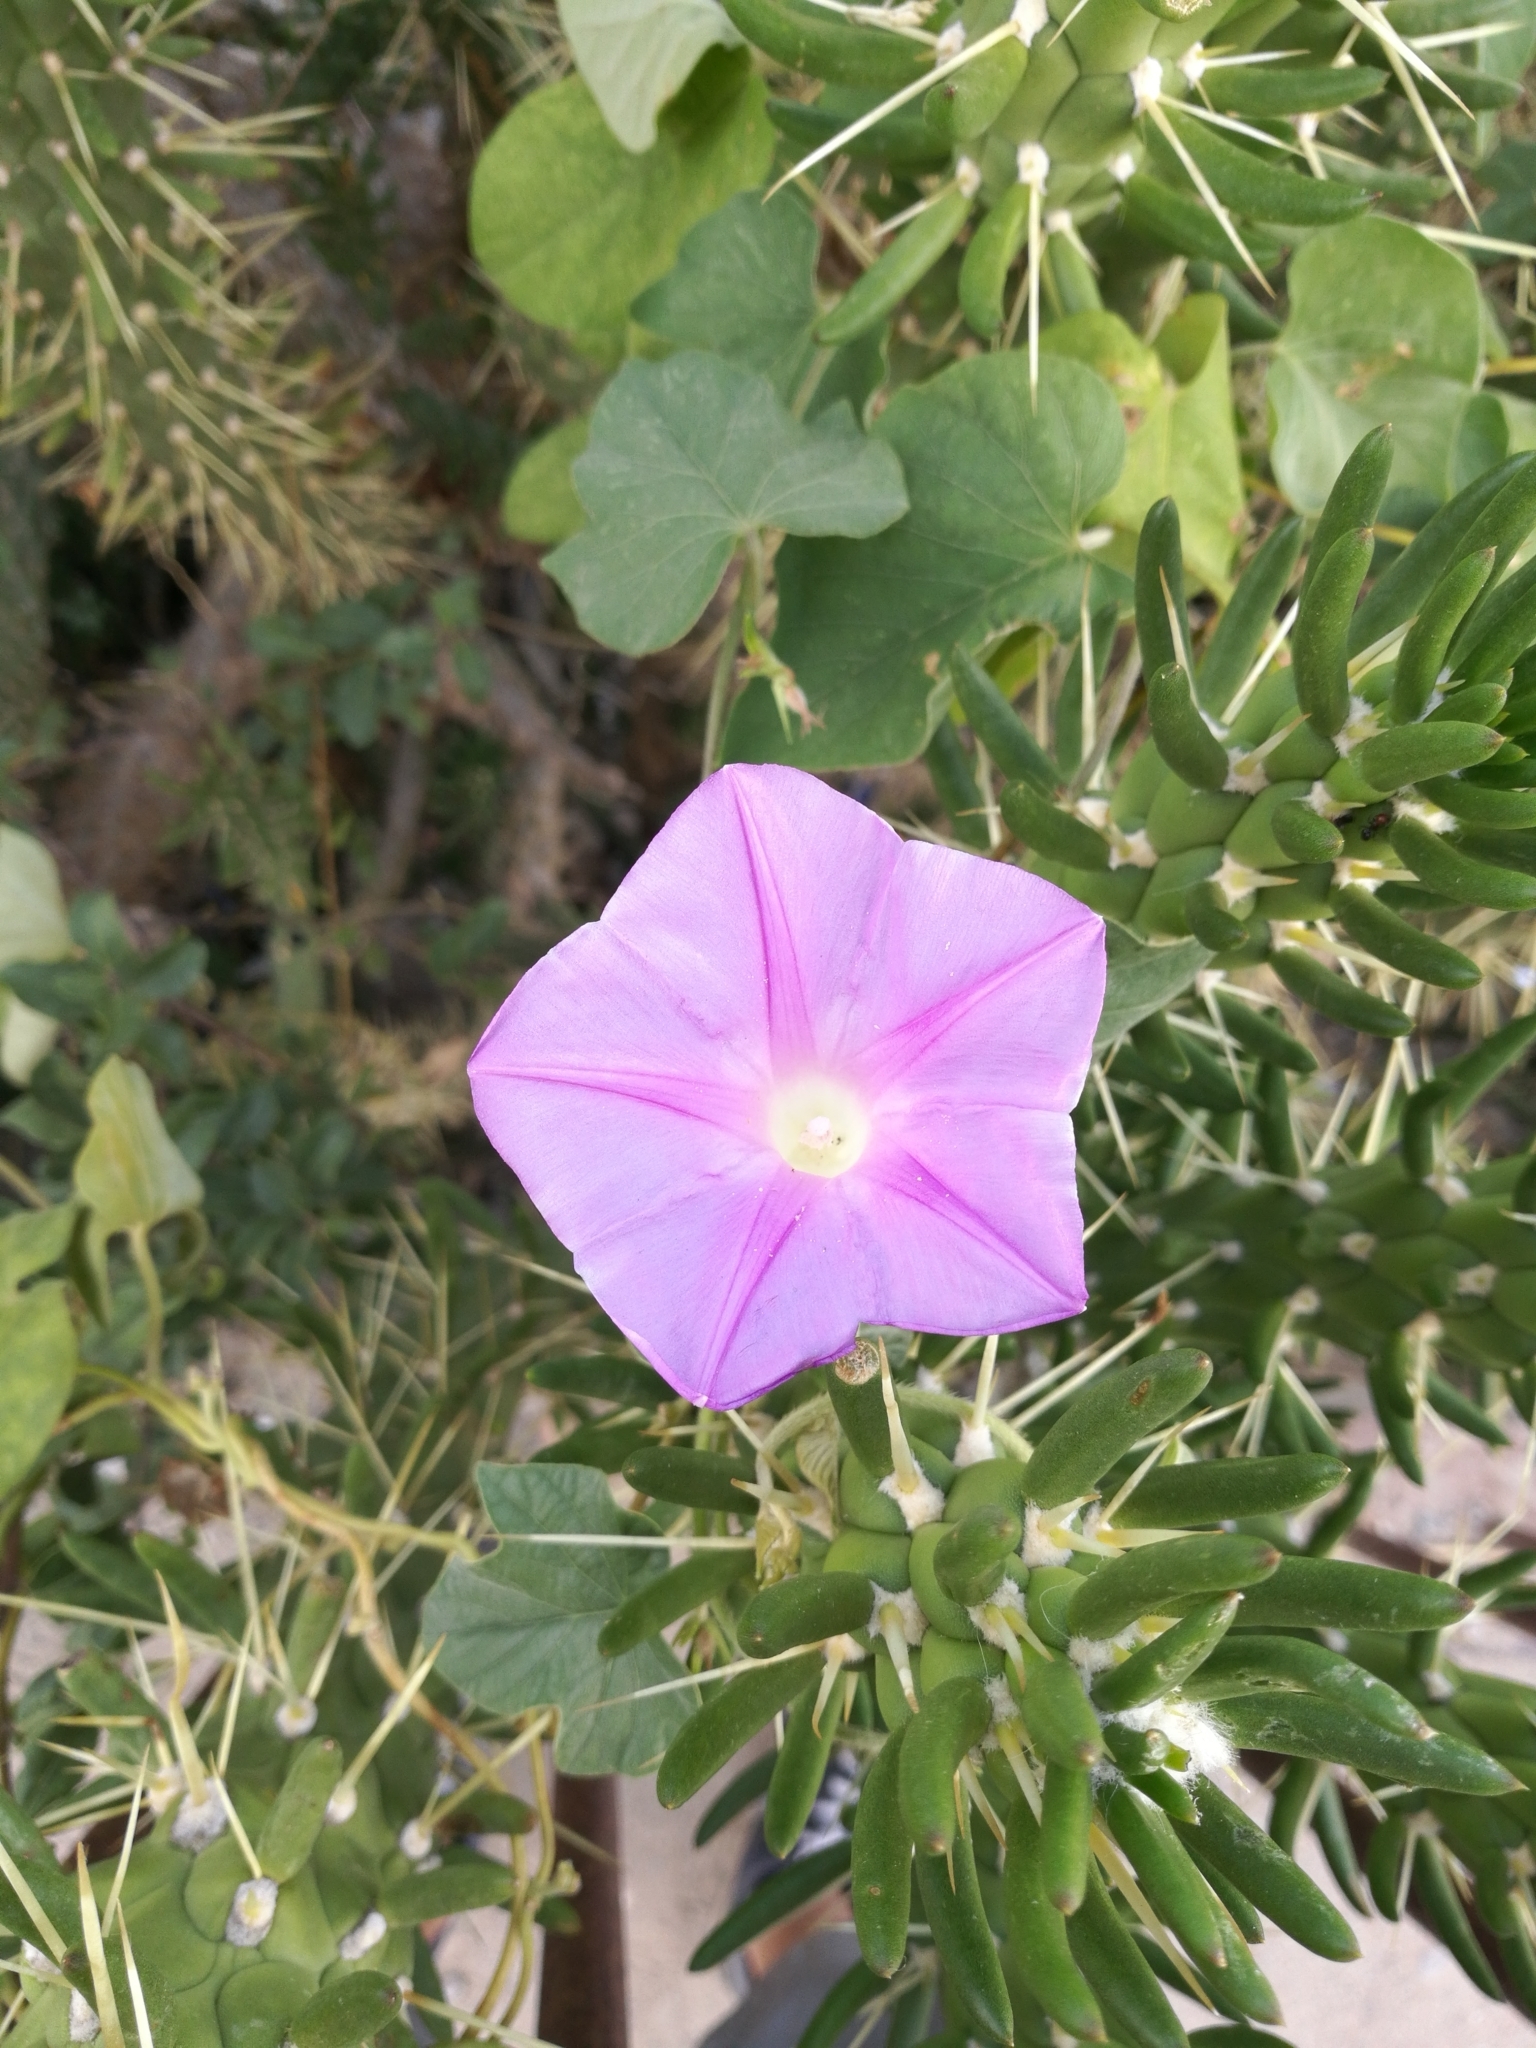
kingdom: Plantae
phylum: Tracheophyta
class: Magnoliopsida
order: Solanales
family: Convolvulaceae
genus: Ipomoea
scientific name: Ipomoea indica
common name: Blue dawnflower
